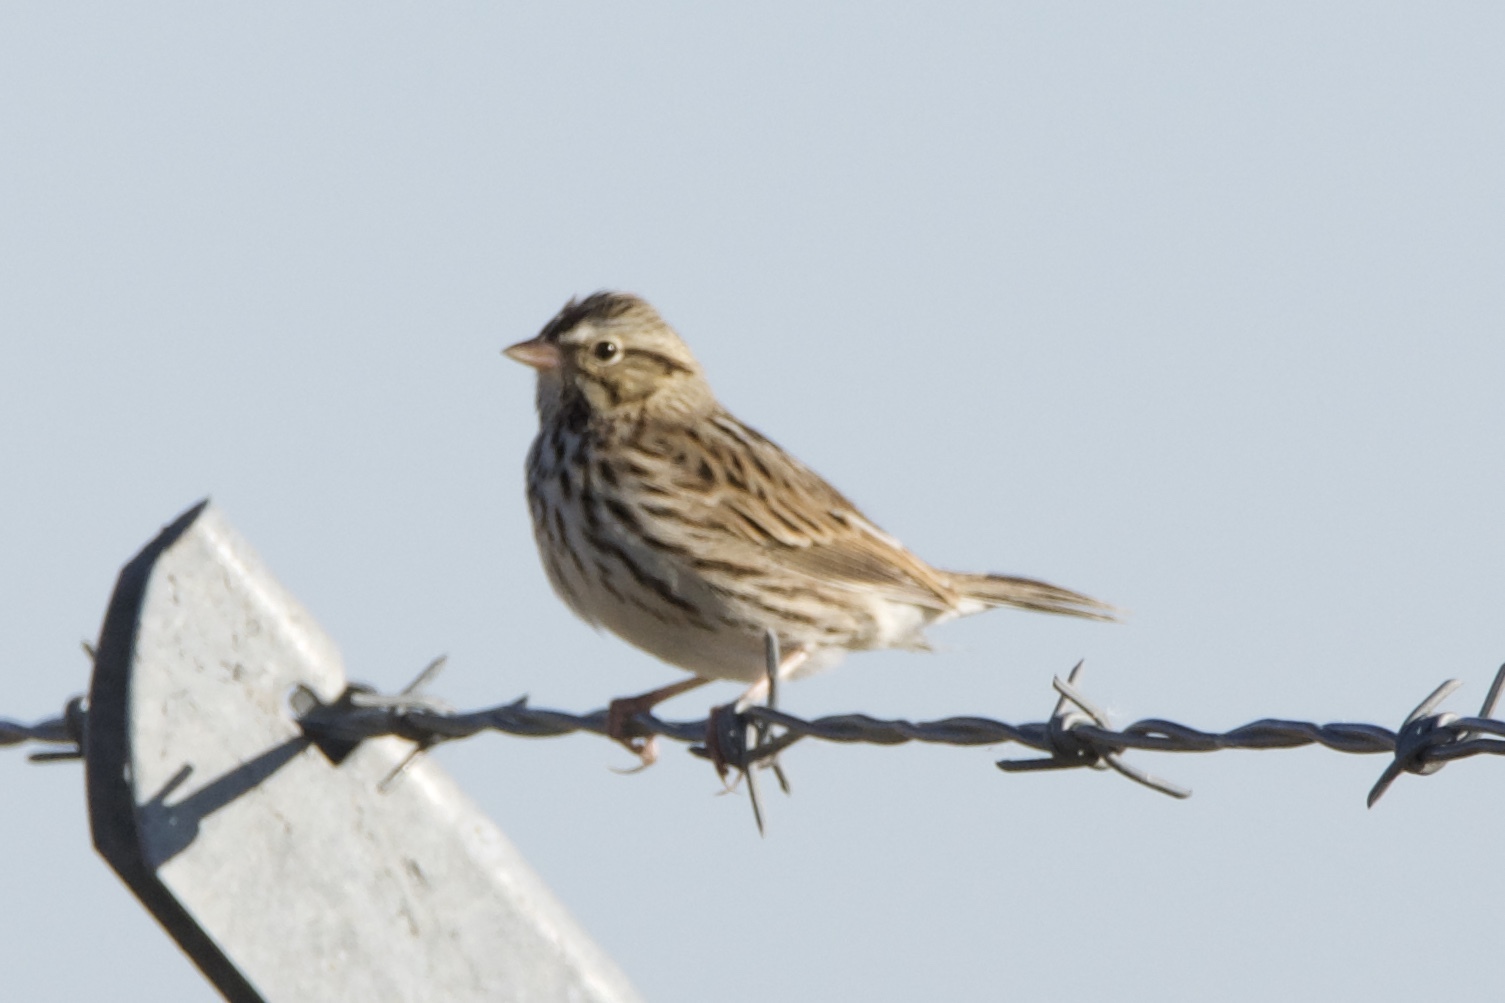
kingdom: Animalia
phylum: Chordata
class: Aves
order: Passeriformes
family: Passerellidae
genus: Passerculus
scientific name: Passerculus sandwichensis
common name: Savannah sparrow
